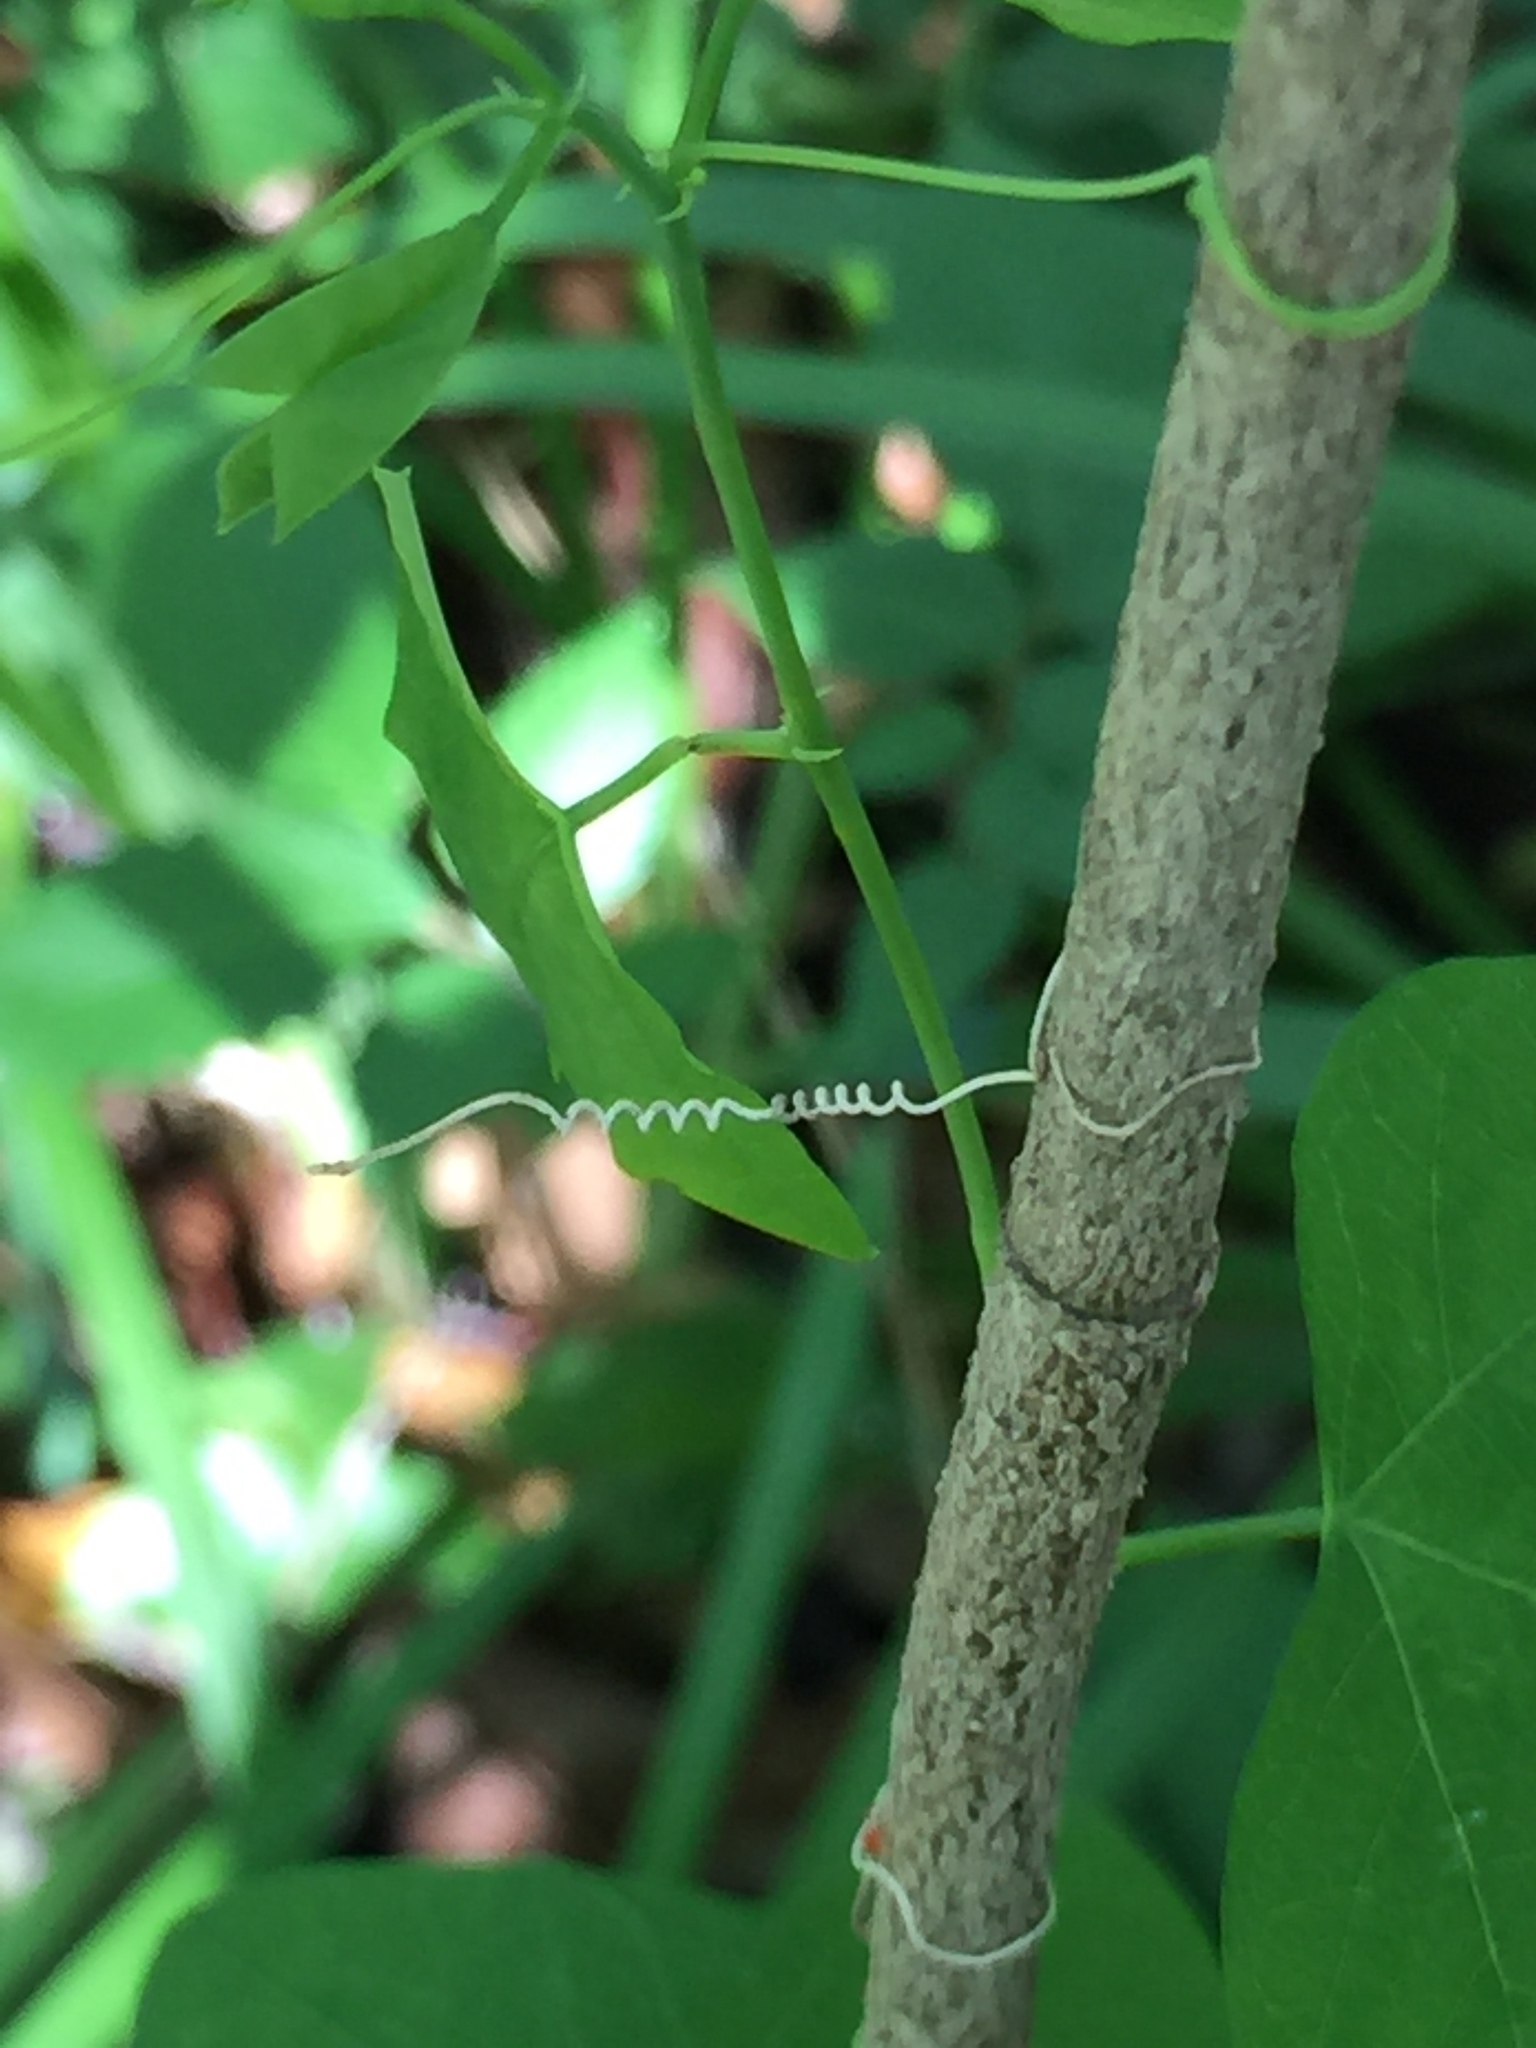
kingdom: Plantae
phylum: Tracheophyta
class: Magnoliopsida
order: Malpighiales
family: Passifloraceae
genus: Passiflora
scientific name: Passiflora lutea
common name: Yellow passionflower
